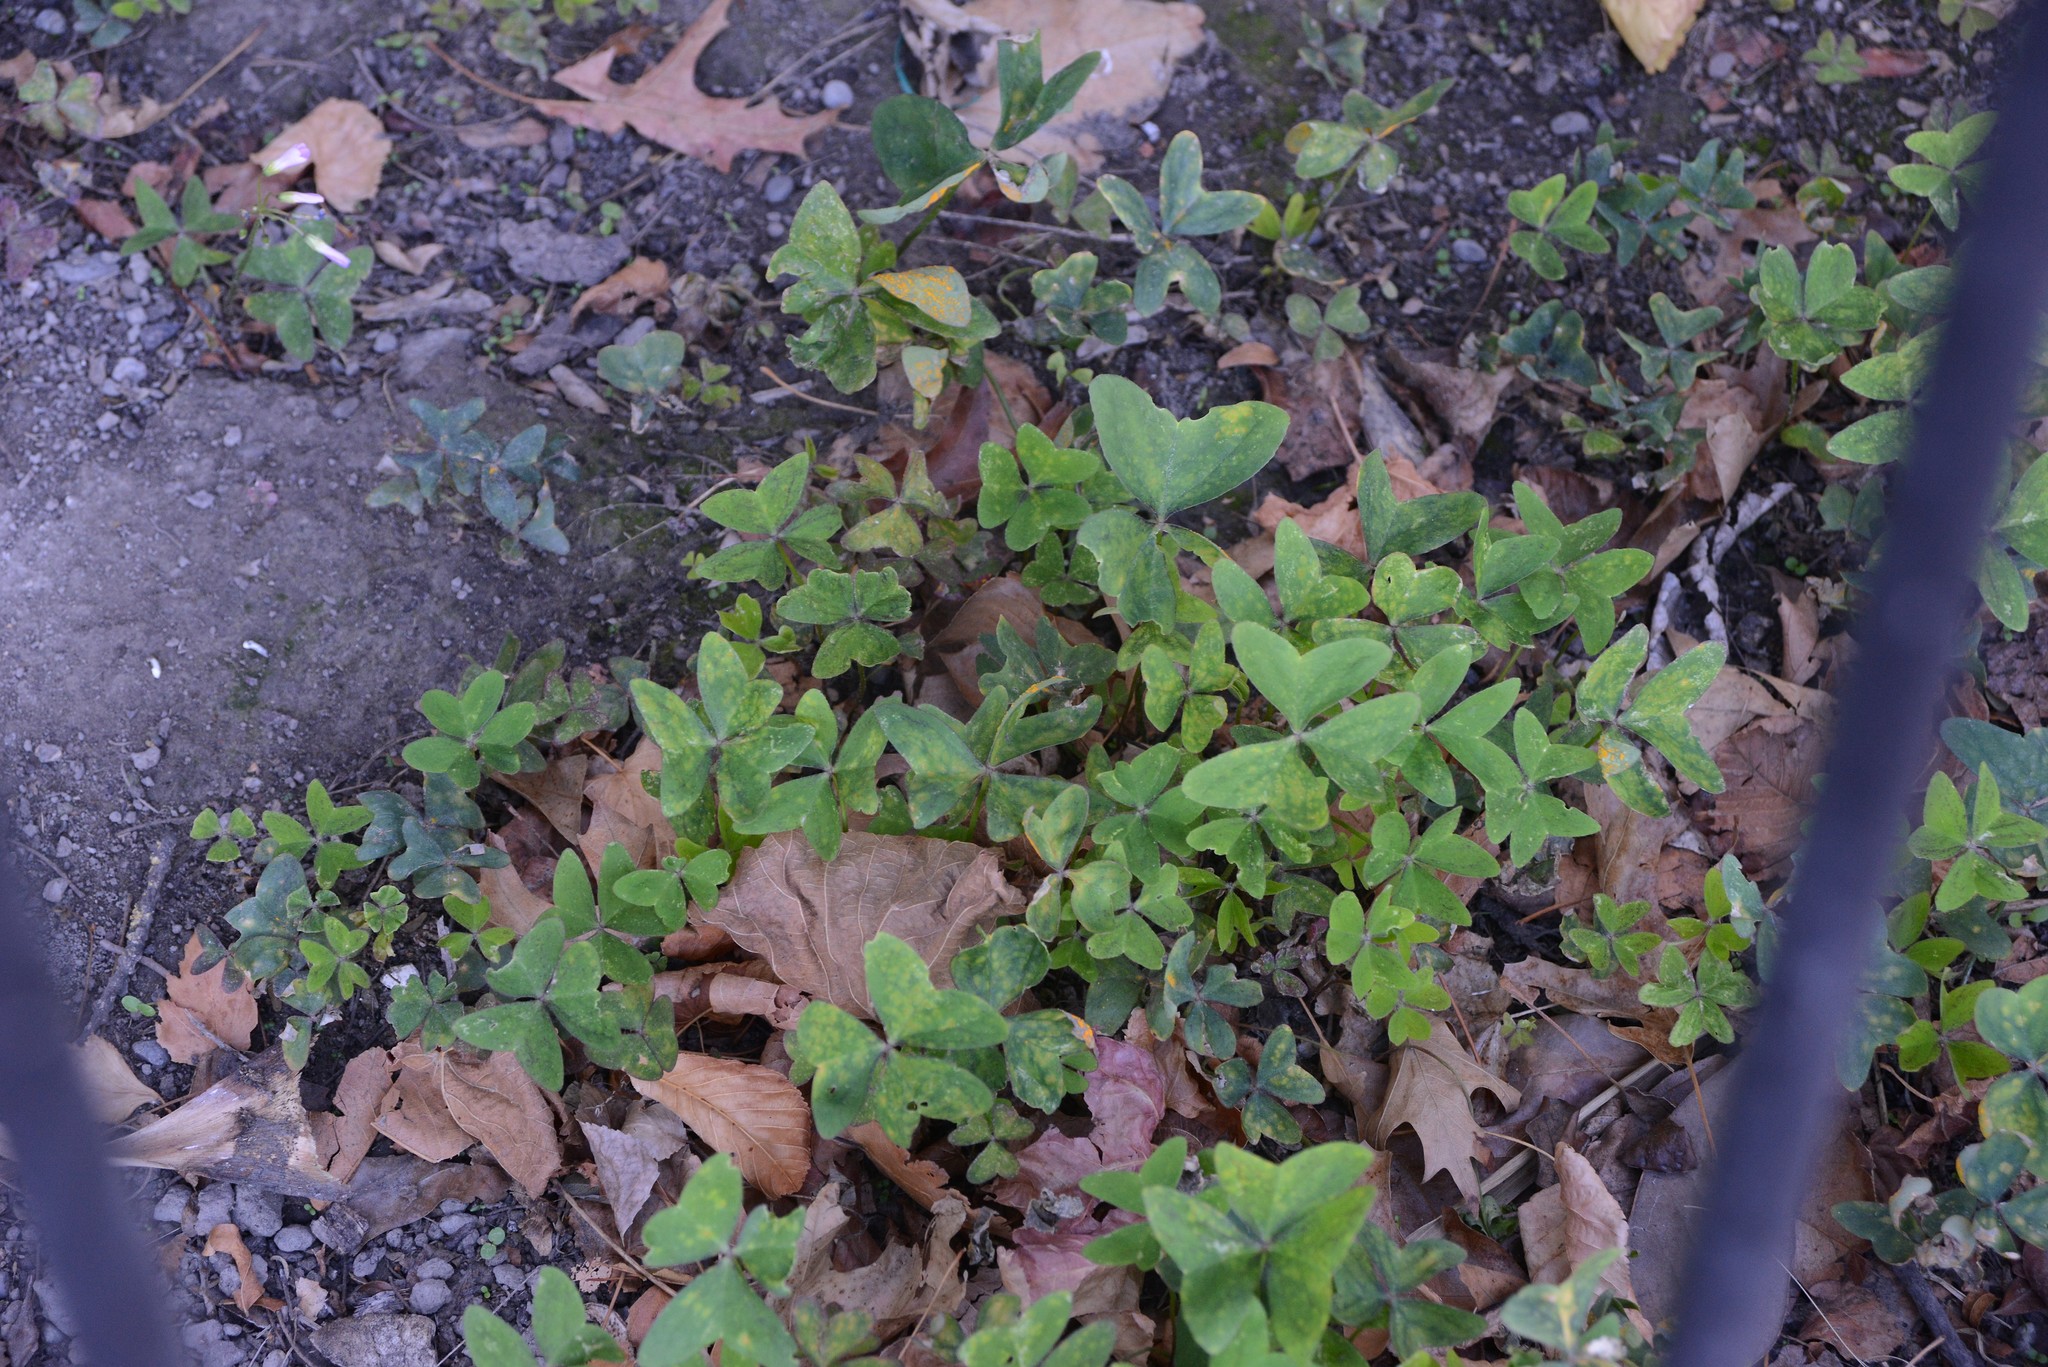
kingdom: Plantae
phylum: Tracheophyta
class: Magnoliopsida
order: Oxalidales
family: Oxalidaceae
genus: Oxalis
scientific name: Oxalis latifolia
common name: Garden pink-sorrel
